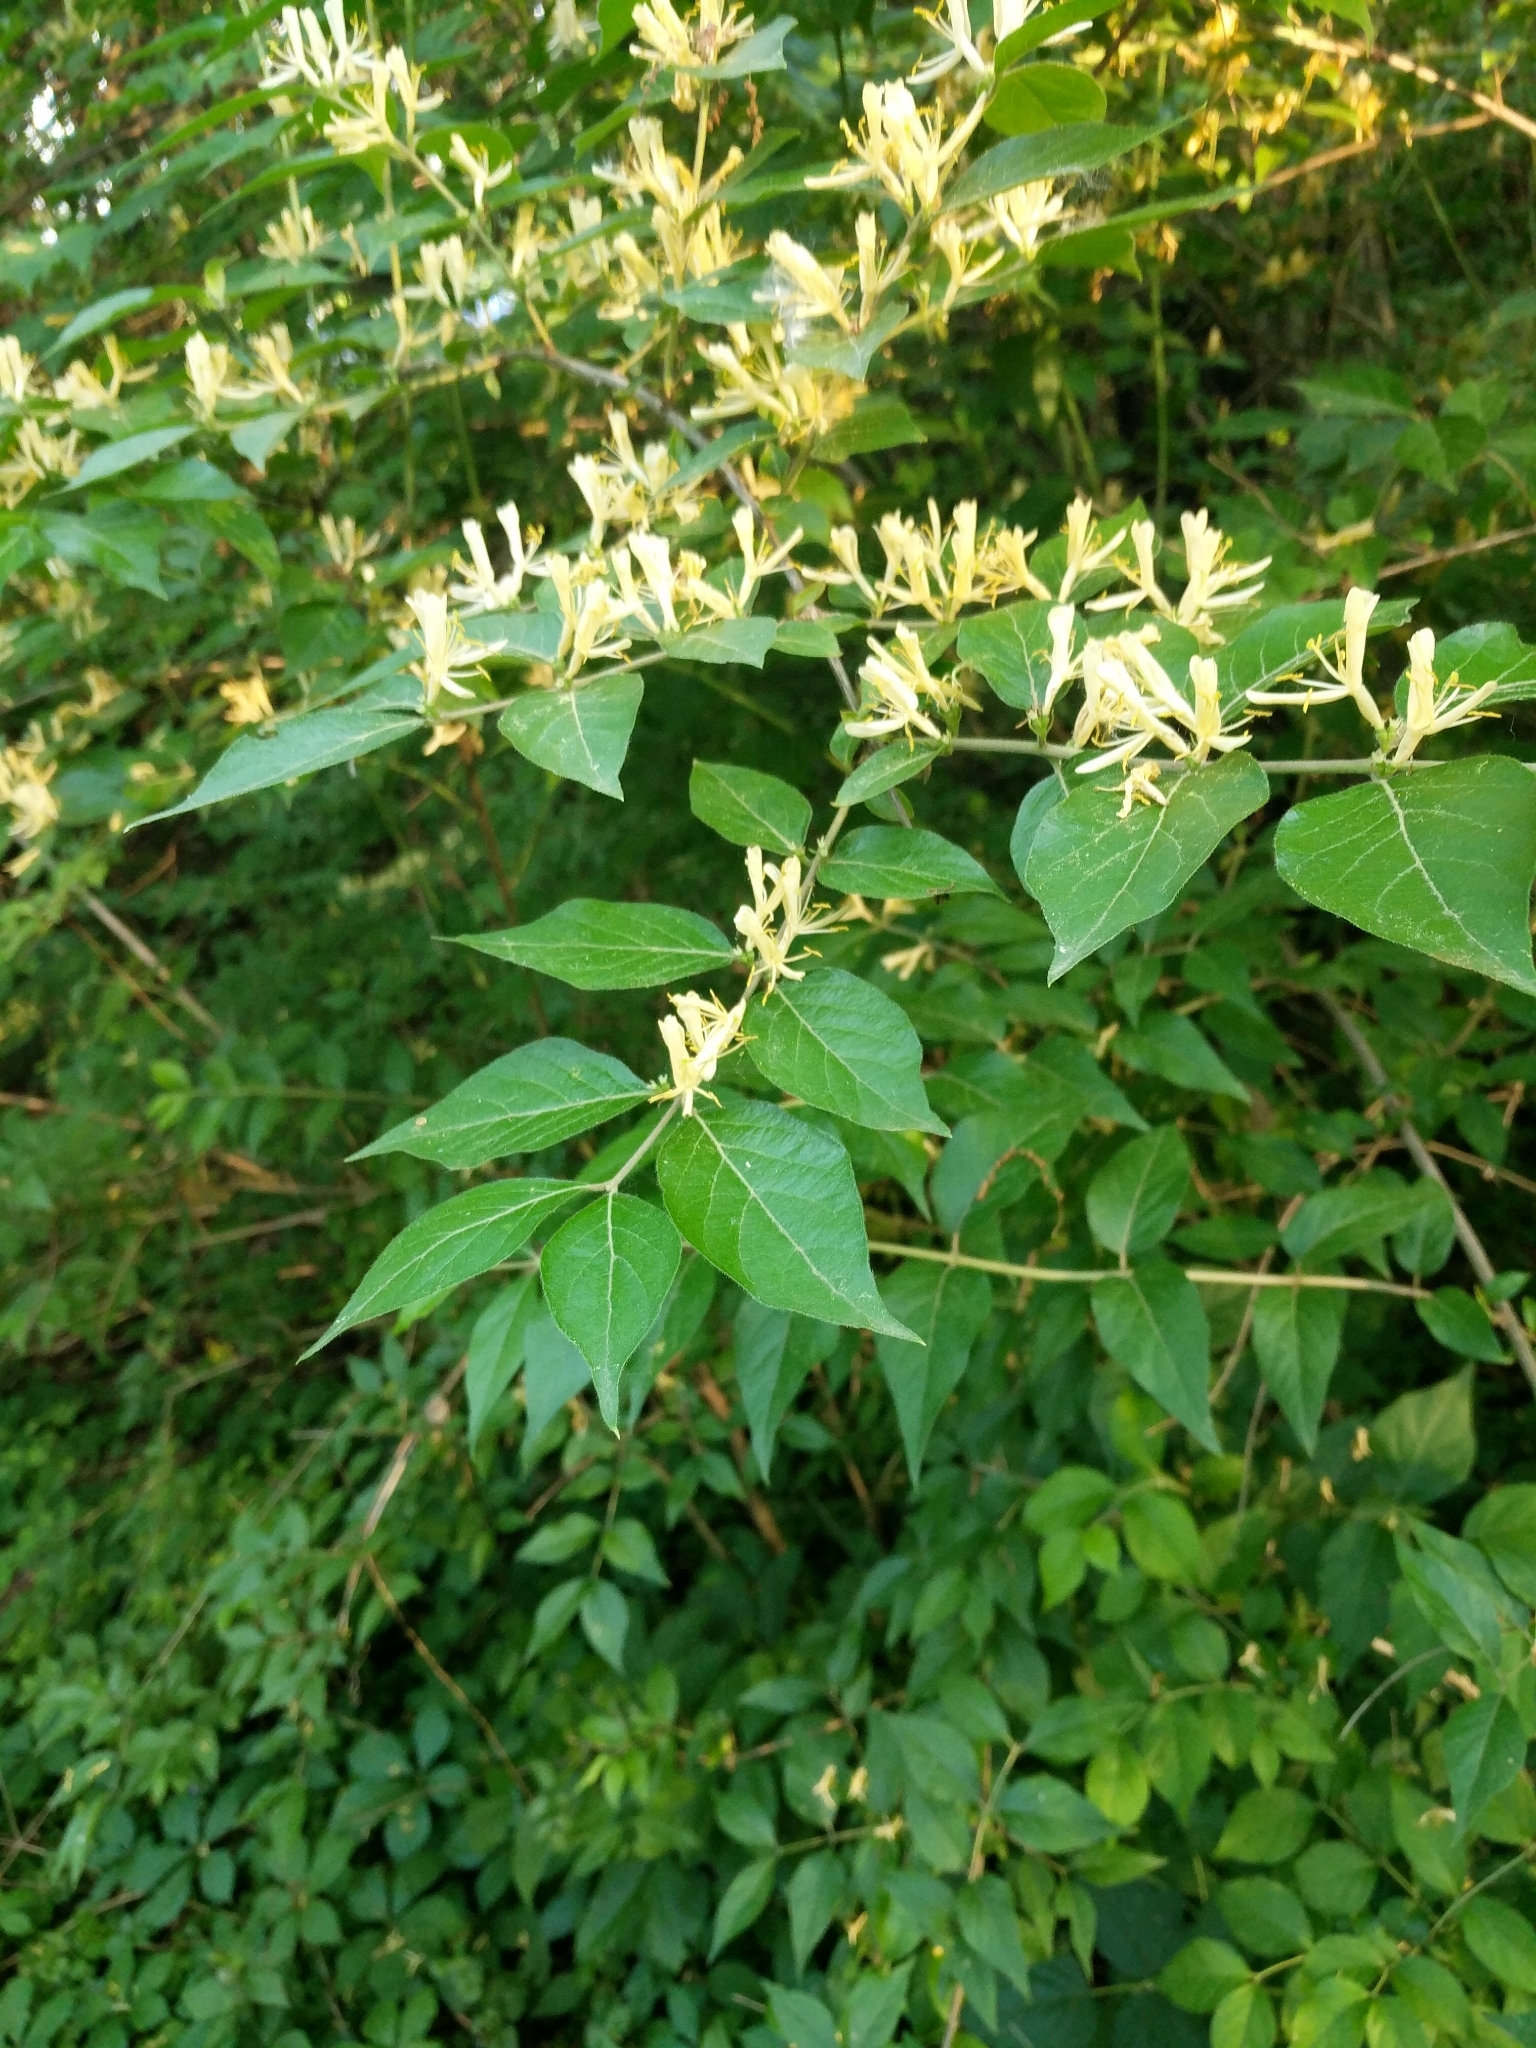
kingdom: Plantae
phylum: Tracheophyta
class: Magnoliopsida
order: Dipsacales
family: Caprifoliaceae
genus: Lonicera
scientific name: Lonicera maackii
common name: Amur honeysuckle
